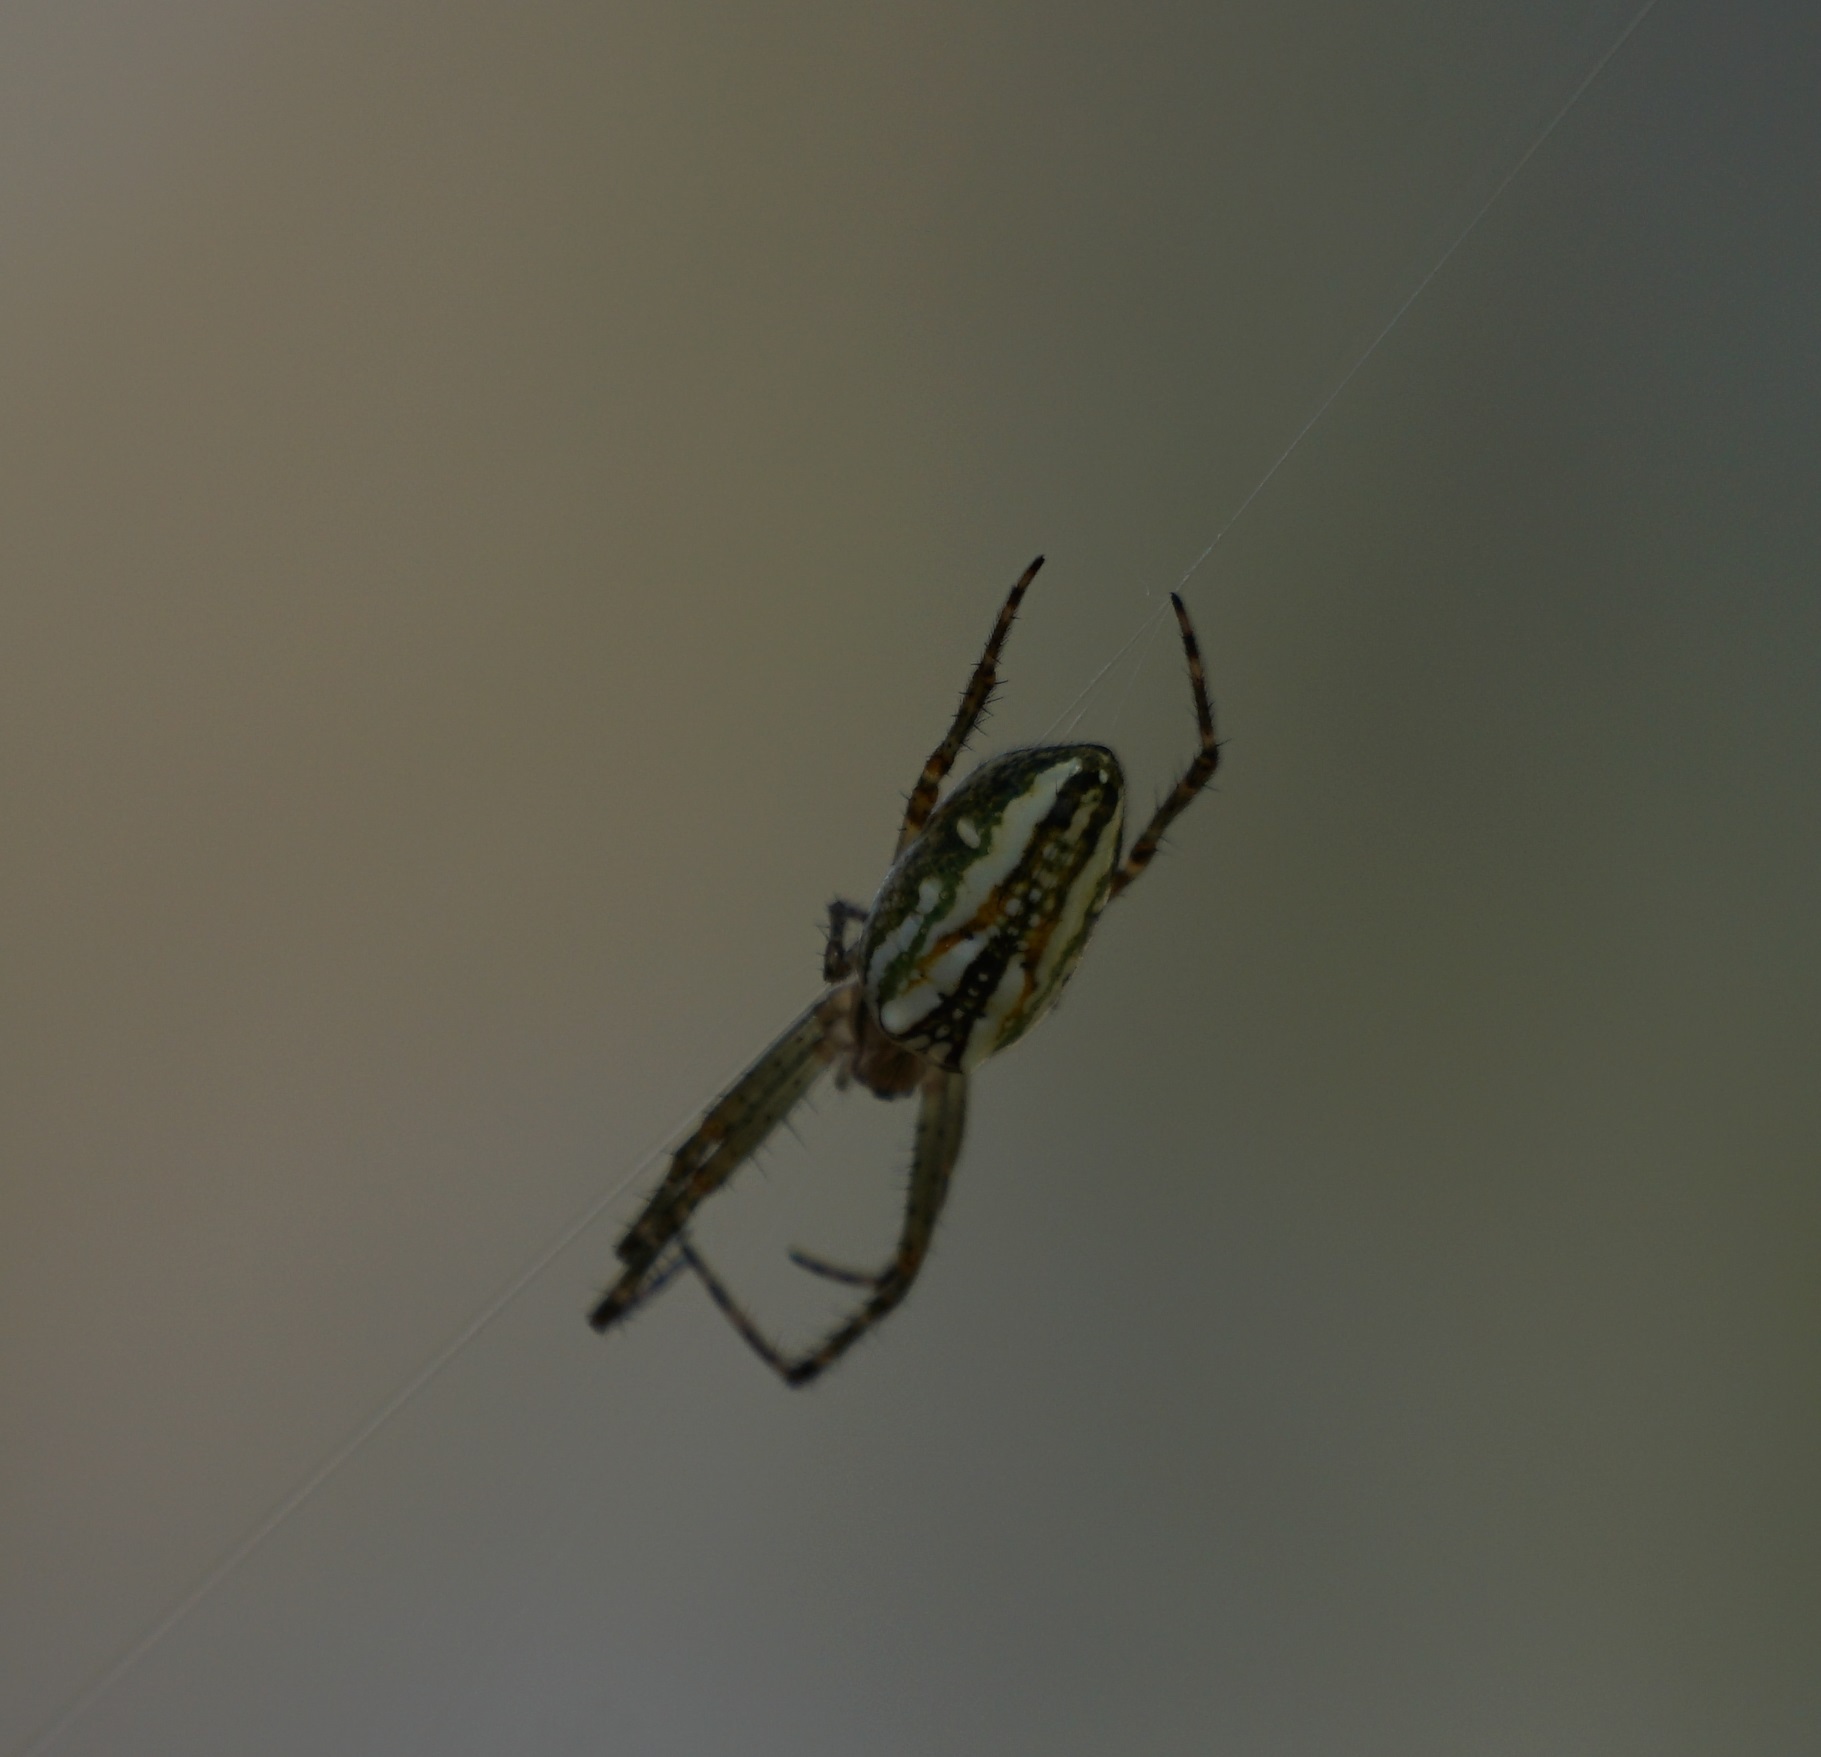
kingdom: Animalia
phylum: Arthropoda
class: Arachnida
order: Araneae
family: Araneidae
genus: Plebs
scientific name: Plebs bradleyi
